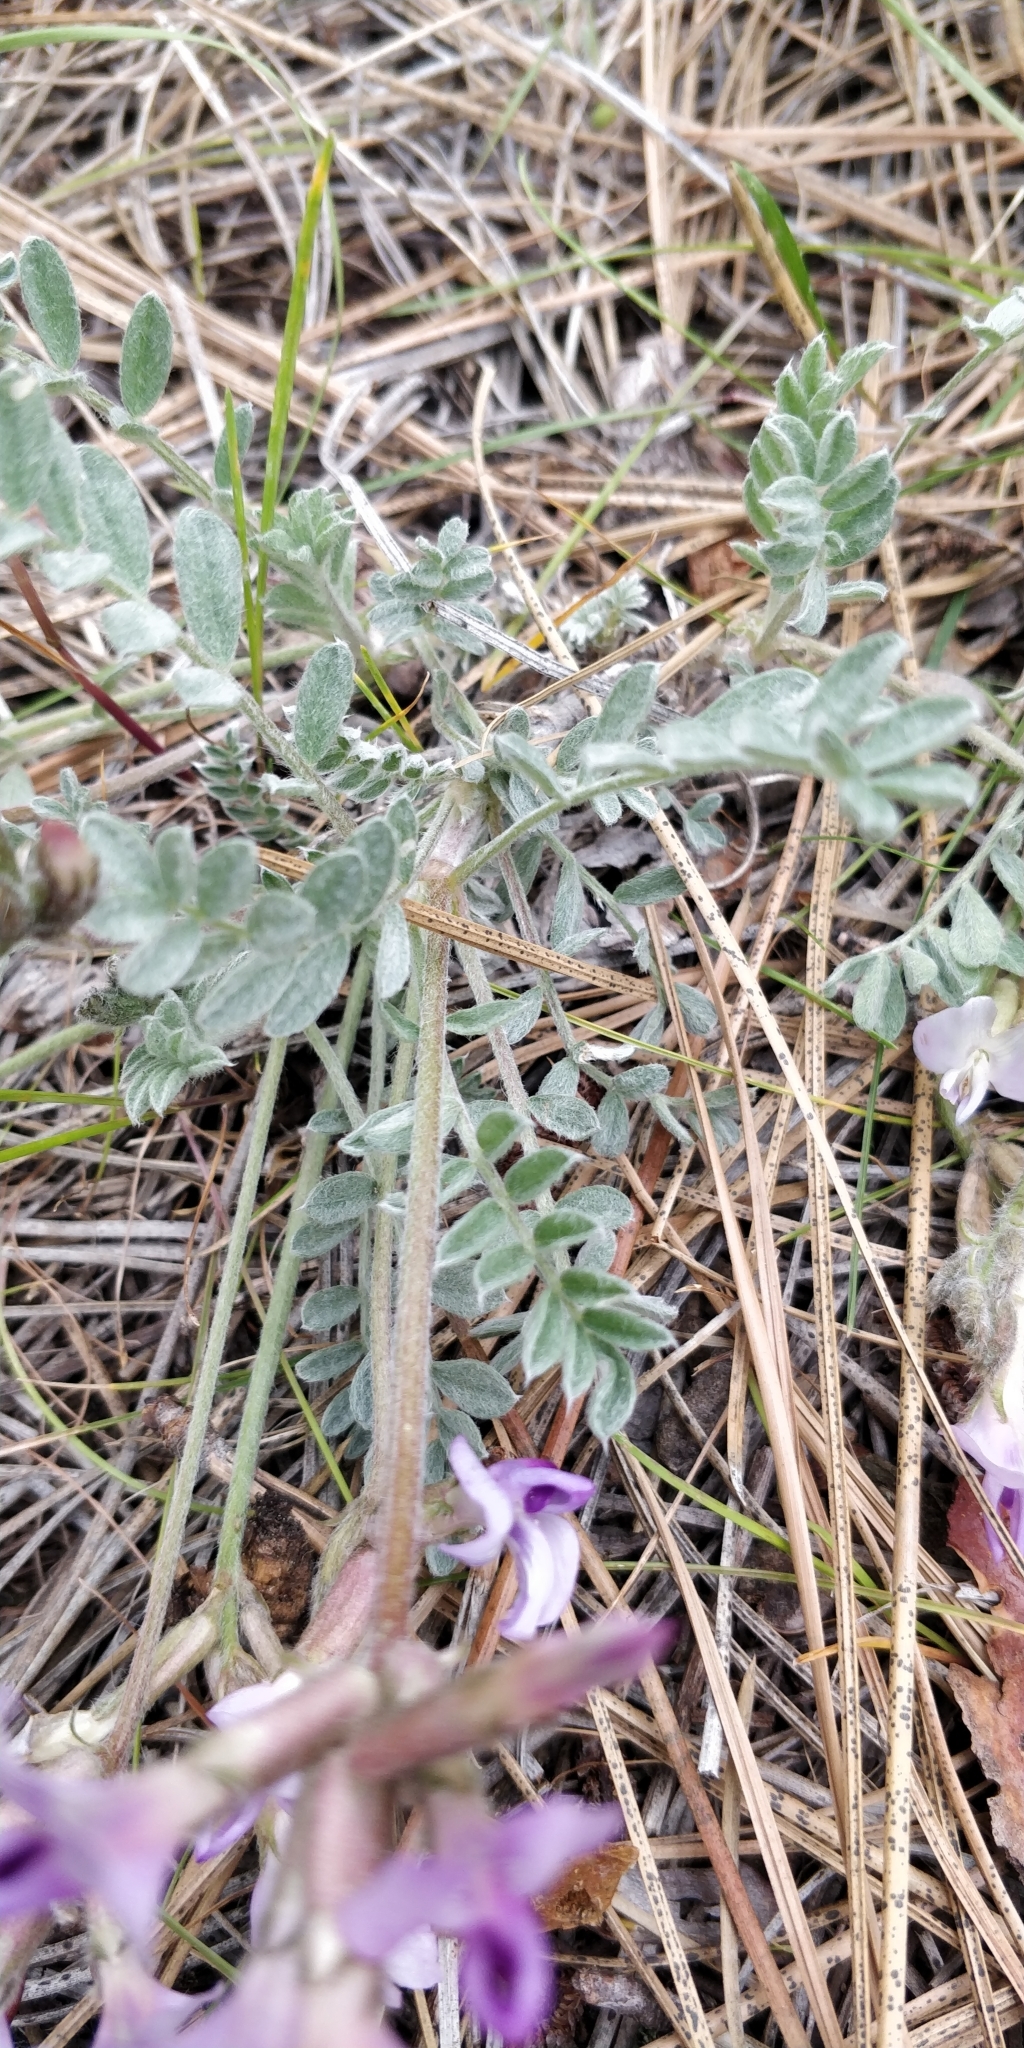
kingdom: Plantae
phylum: Tracheophyta
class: Magnoliopsida
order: Fabales
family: Fabaceae
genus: Astragalus
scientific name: Astragalus purshii
